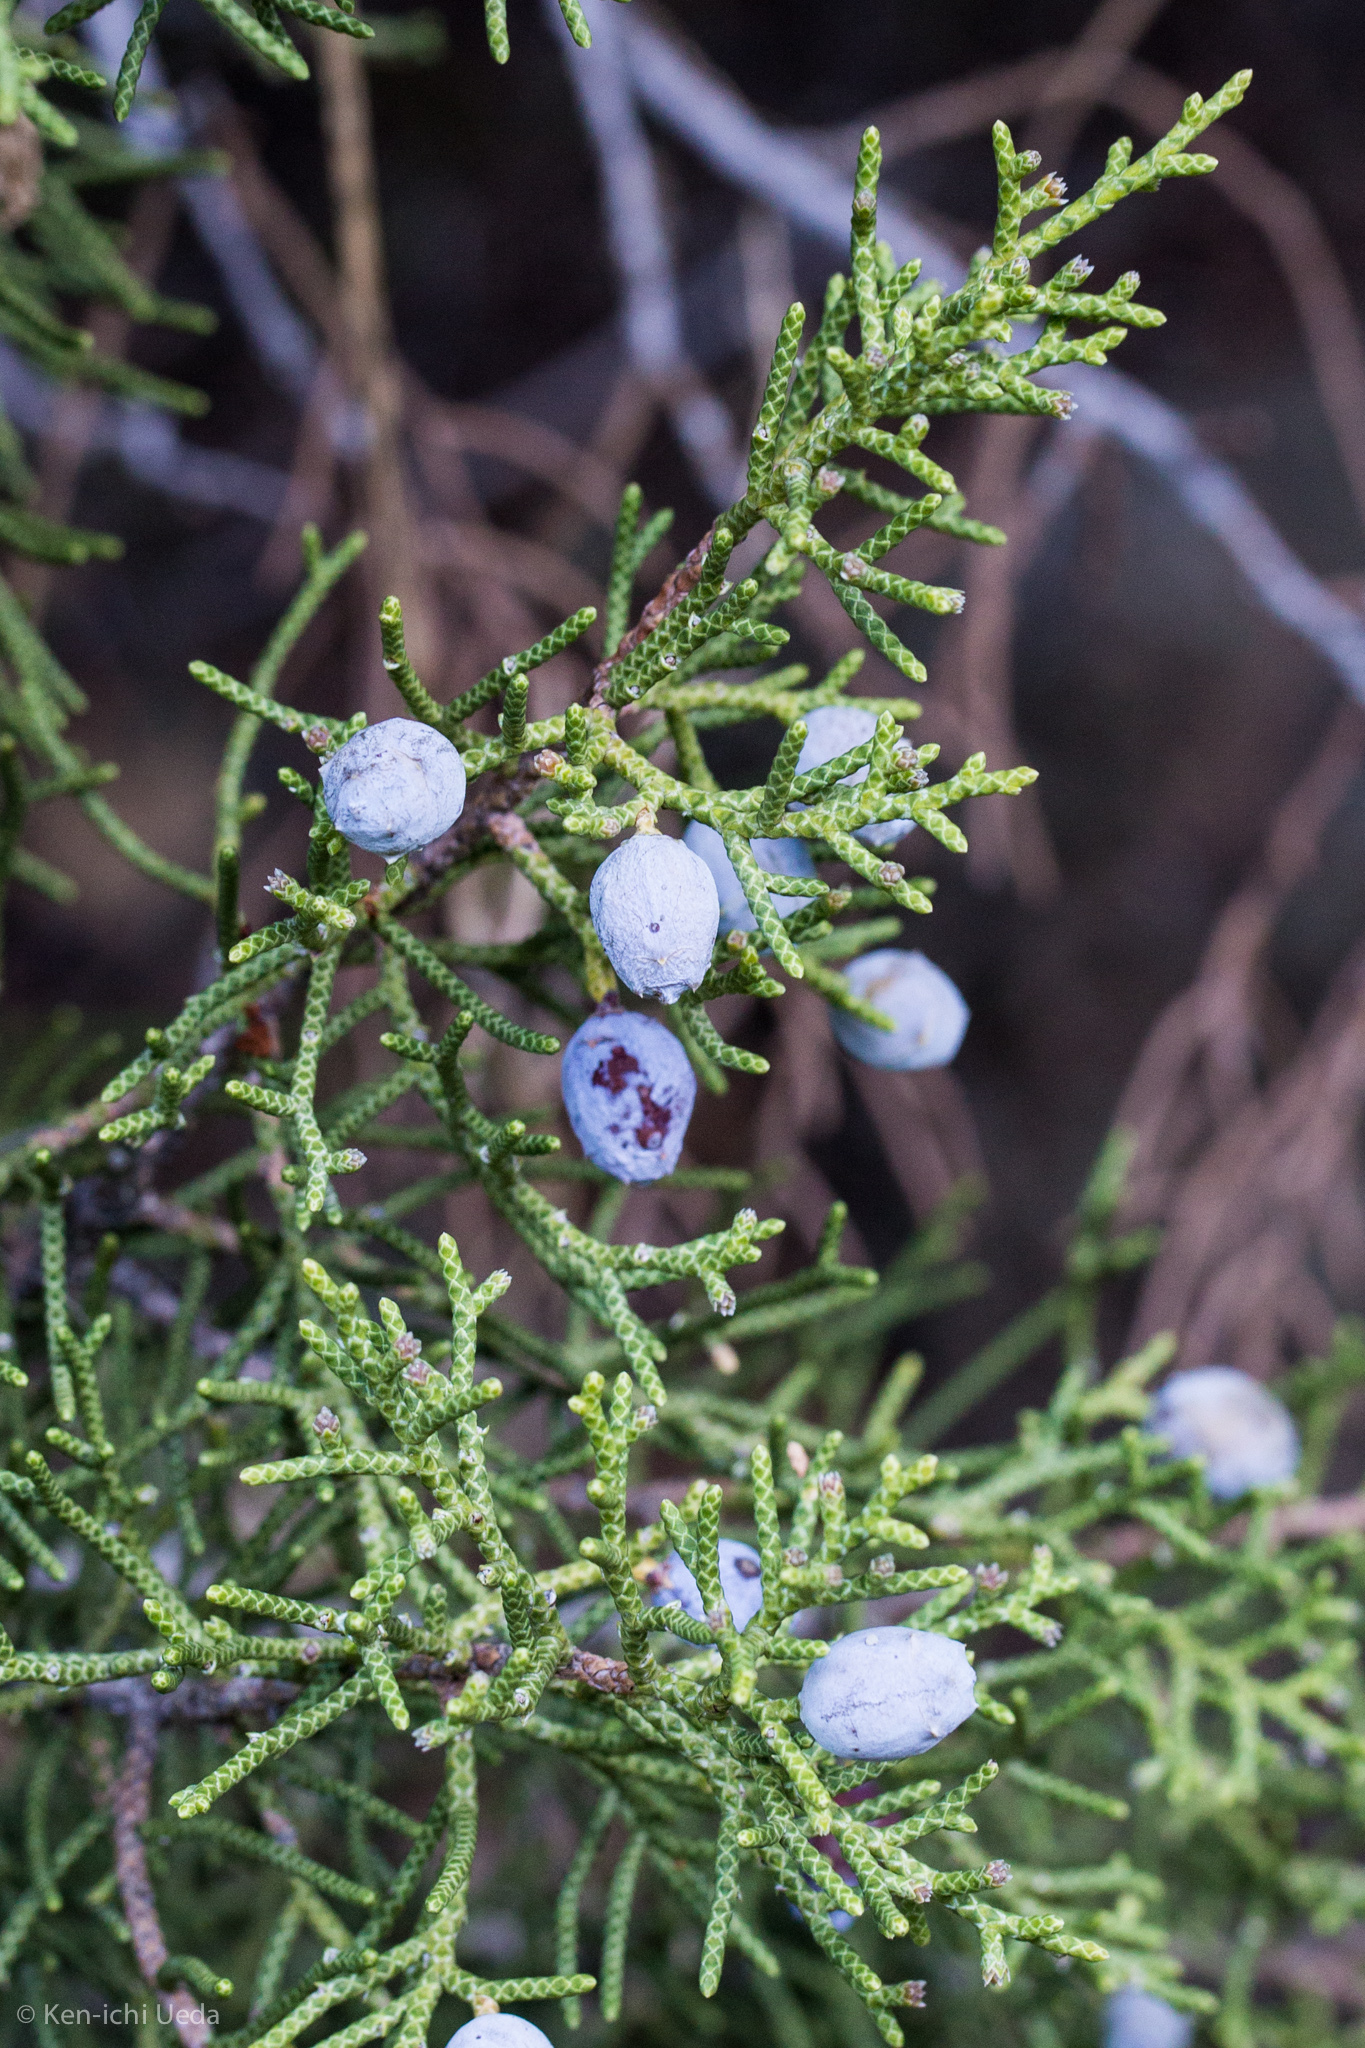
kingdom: Plantae
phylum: Tracheophyta
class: Pinopsida
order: Pinales
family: Cupressaceae
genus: Juniperus
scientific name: Juniperus californica
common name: California juniper
